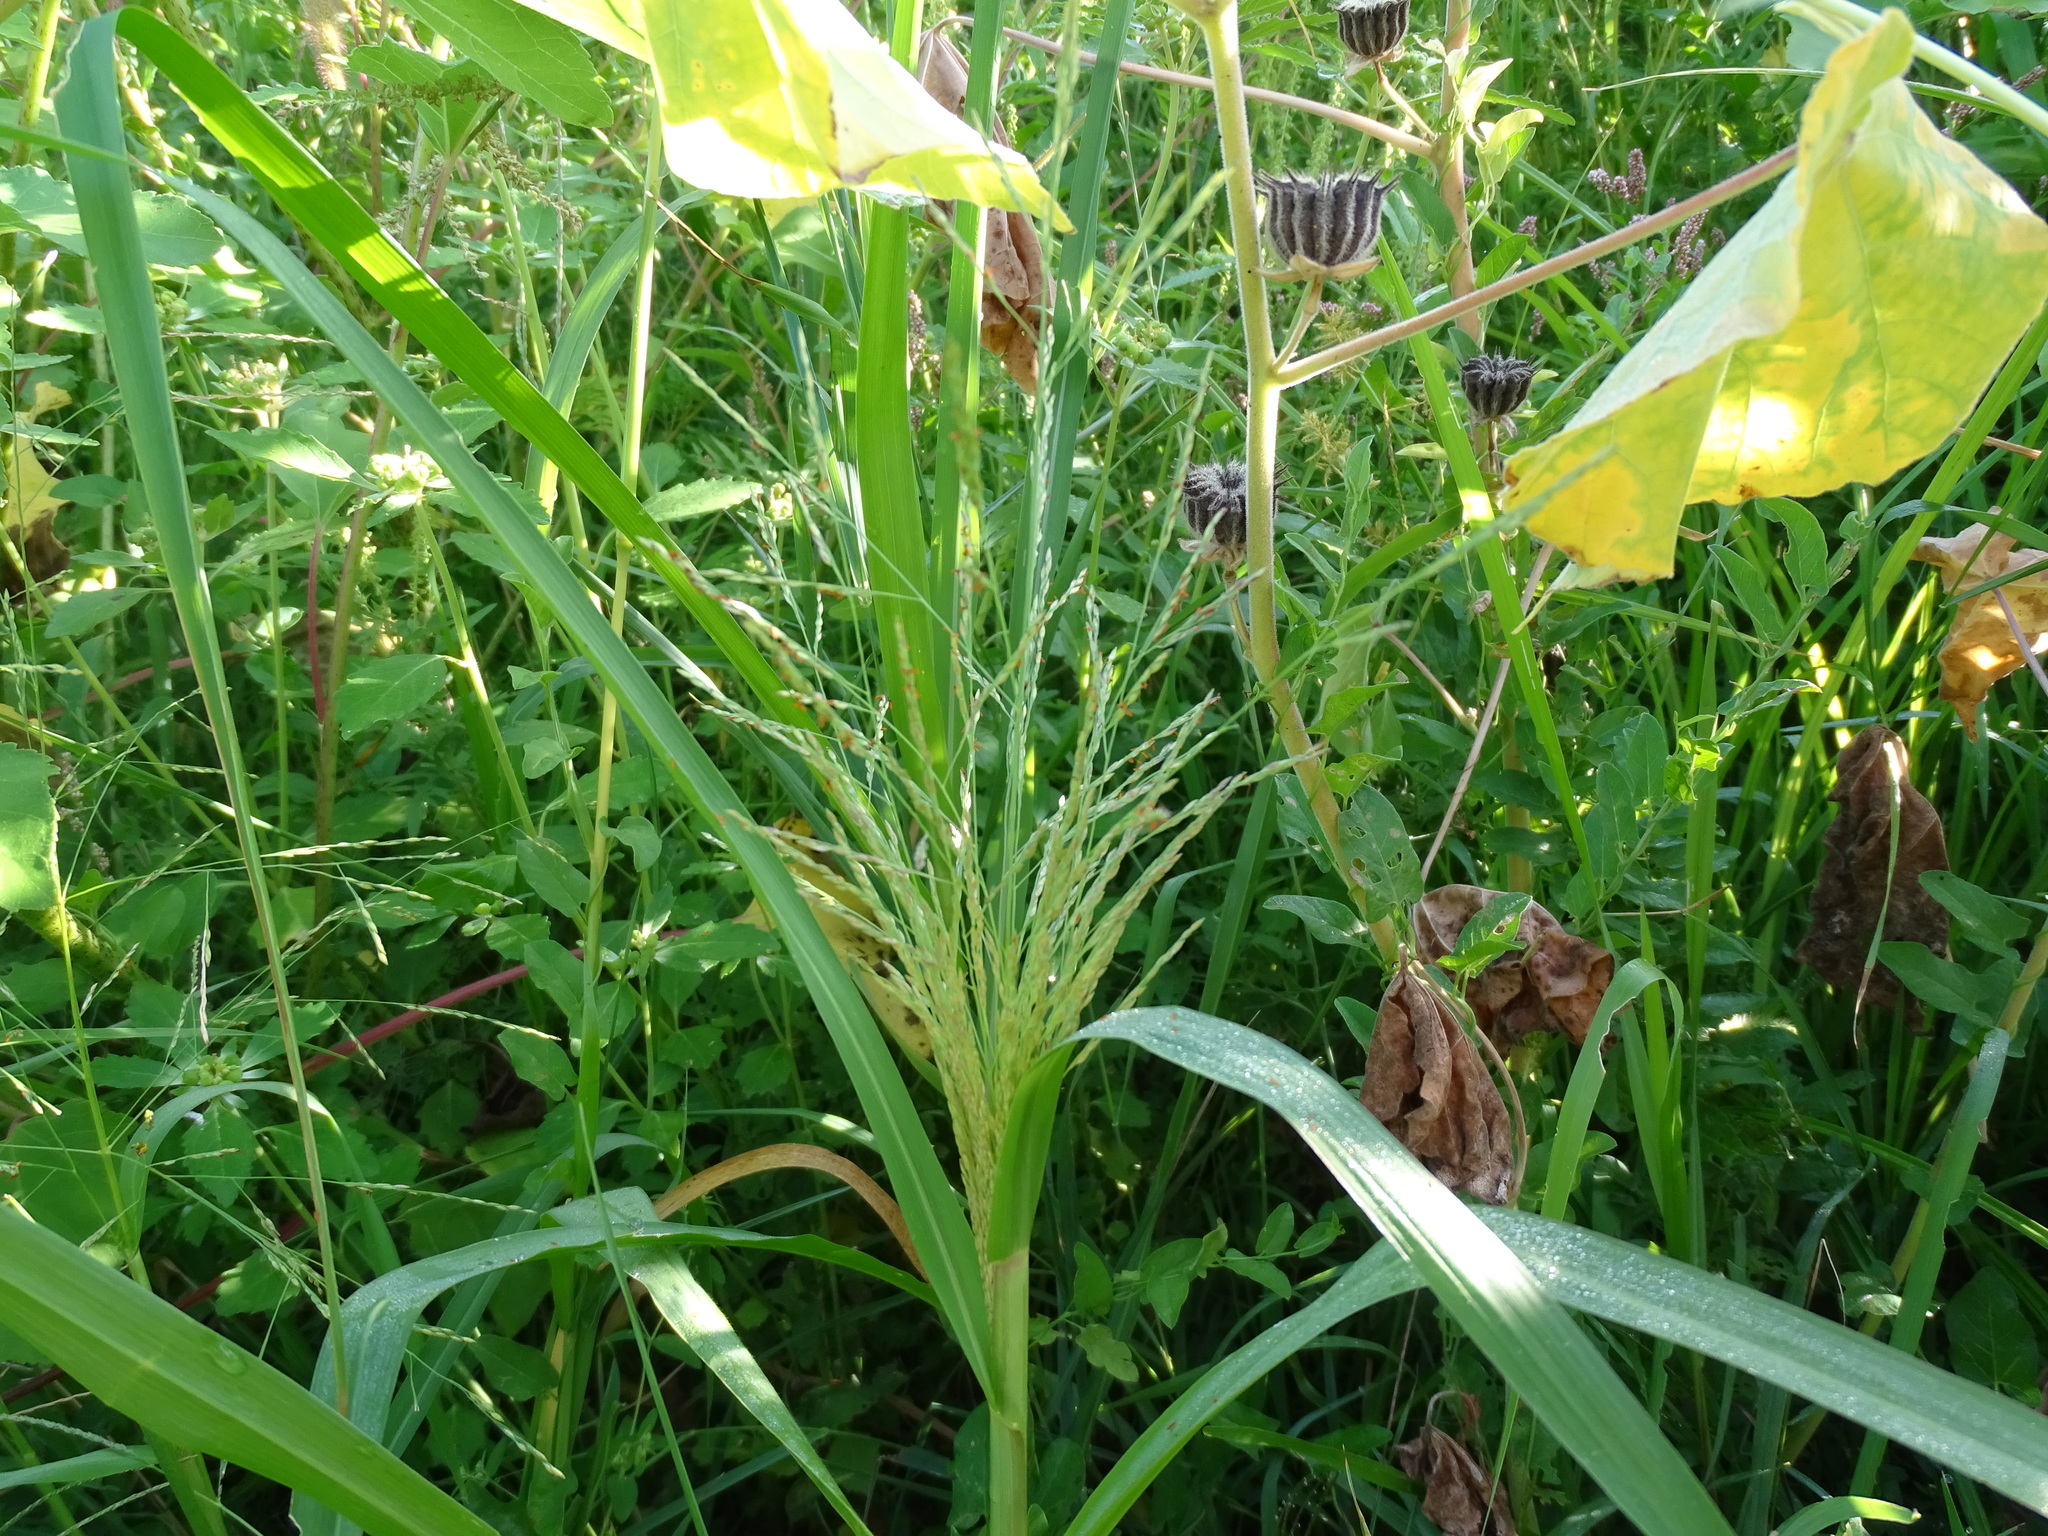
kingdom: Plantae
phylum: Tracheophyta
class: Liliopsida
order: Poales
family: Poaceae
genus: Panicum
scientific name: Panicum dichotomiflorum
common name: Autumn millet
